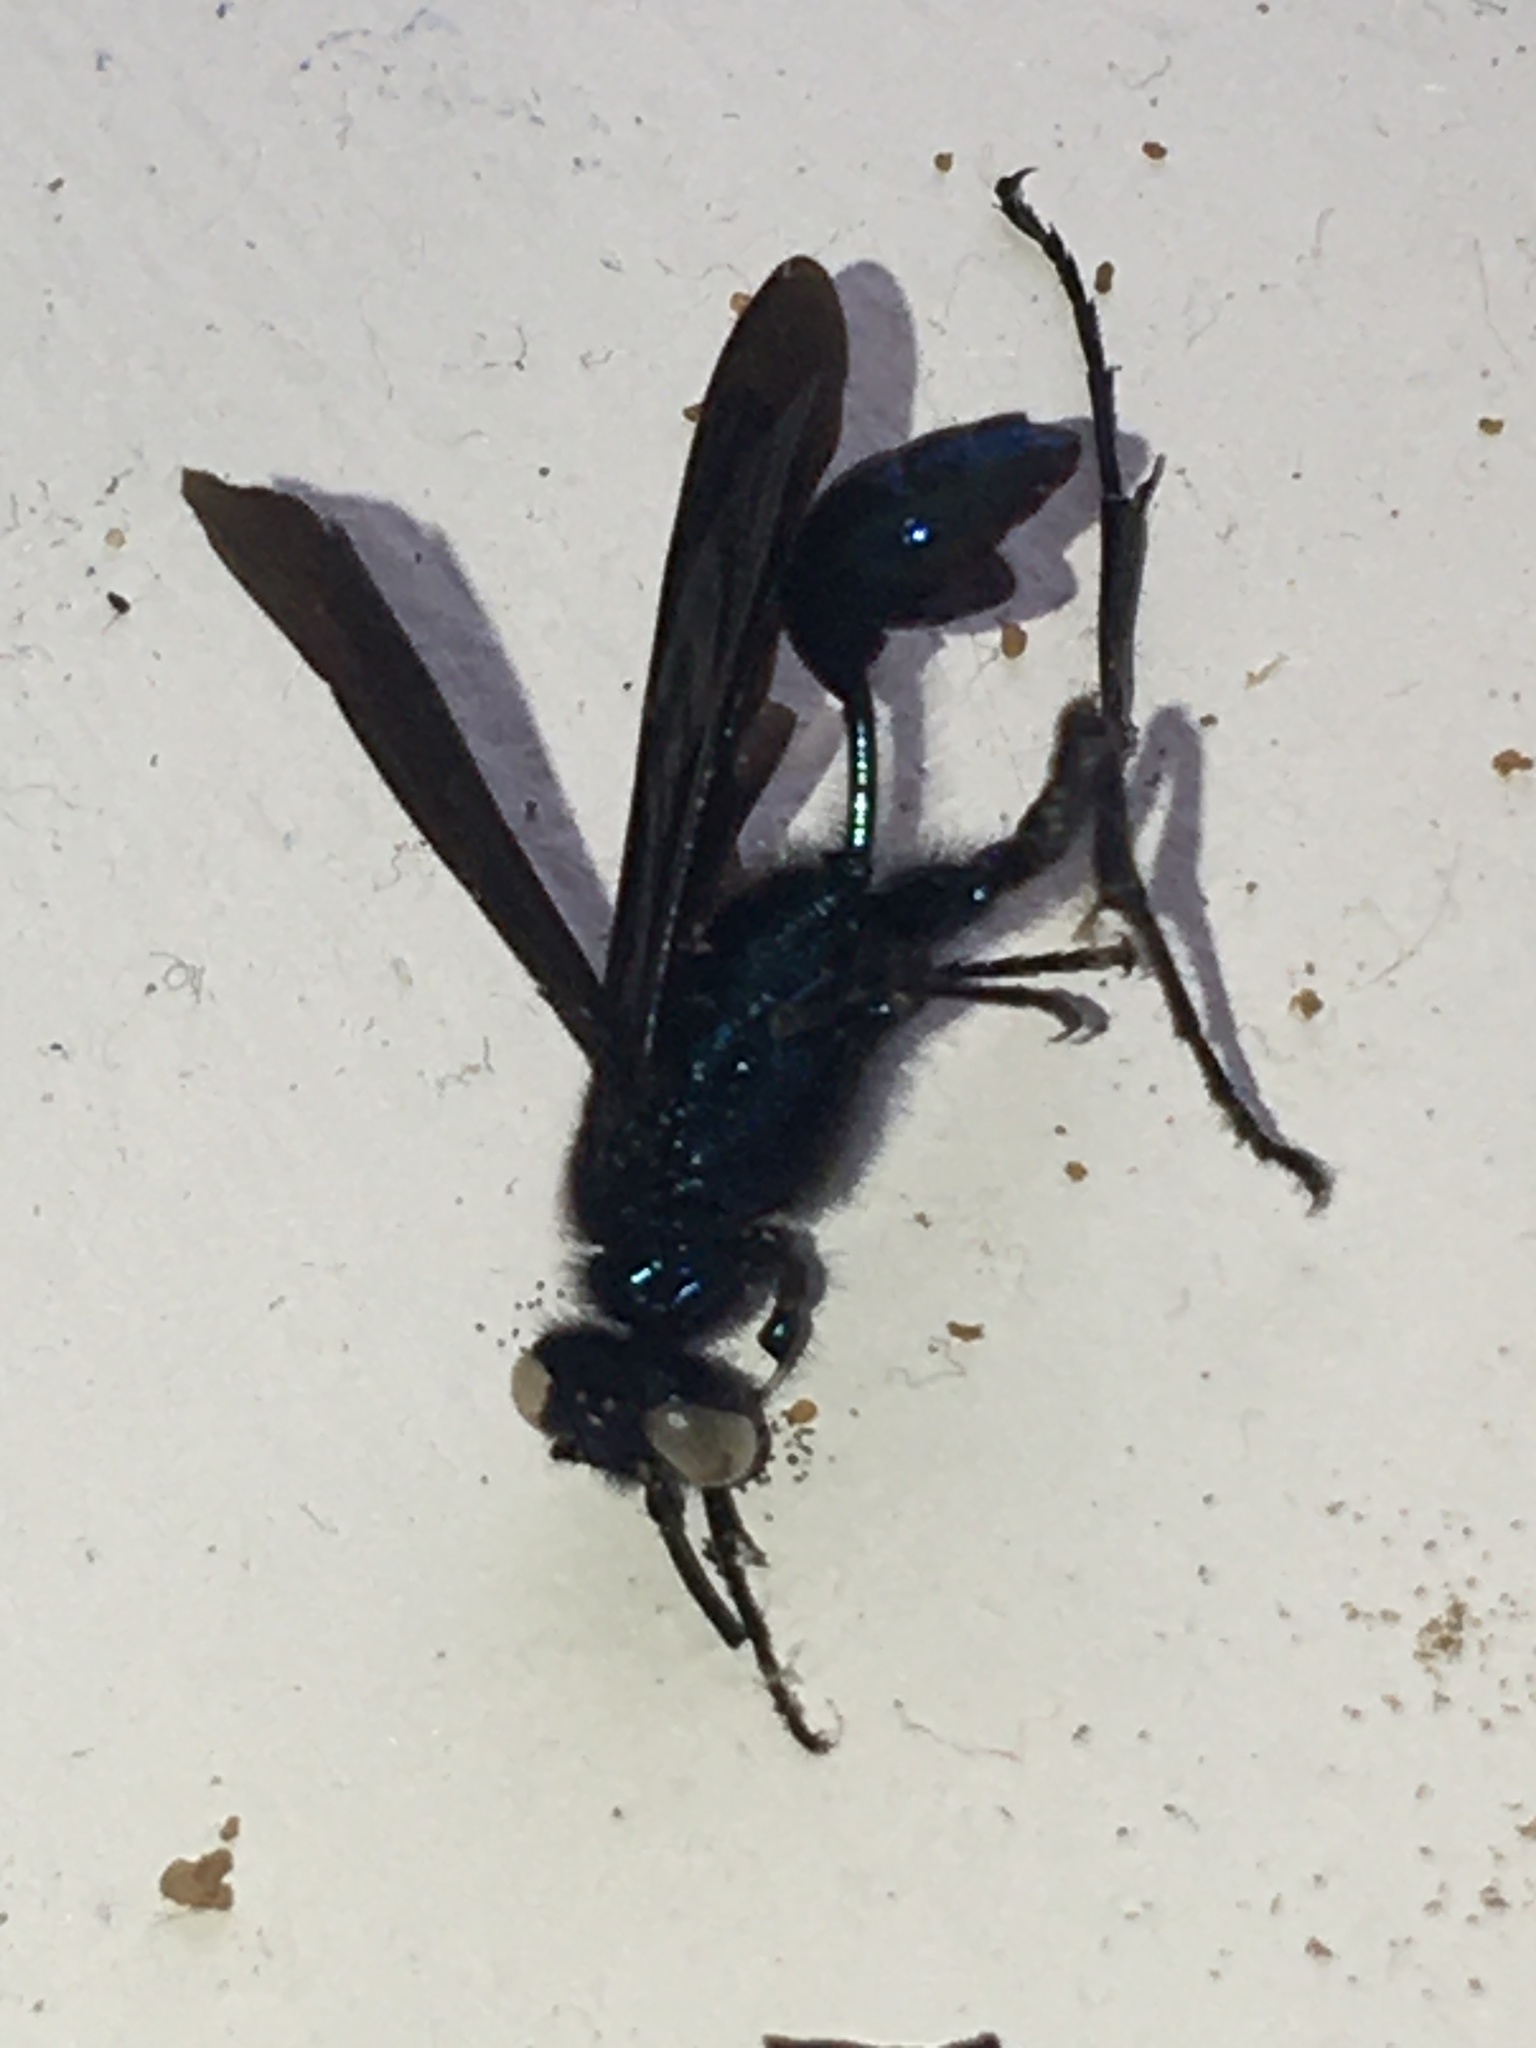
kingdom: Animalia
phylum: Arthropoda
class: Insecta
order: Hymenoptera
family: Sphecidae
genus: Chalybion
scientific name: Chalybion californicum
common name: Mud dauber
